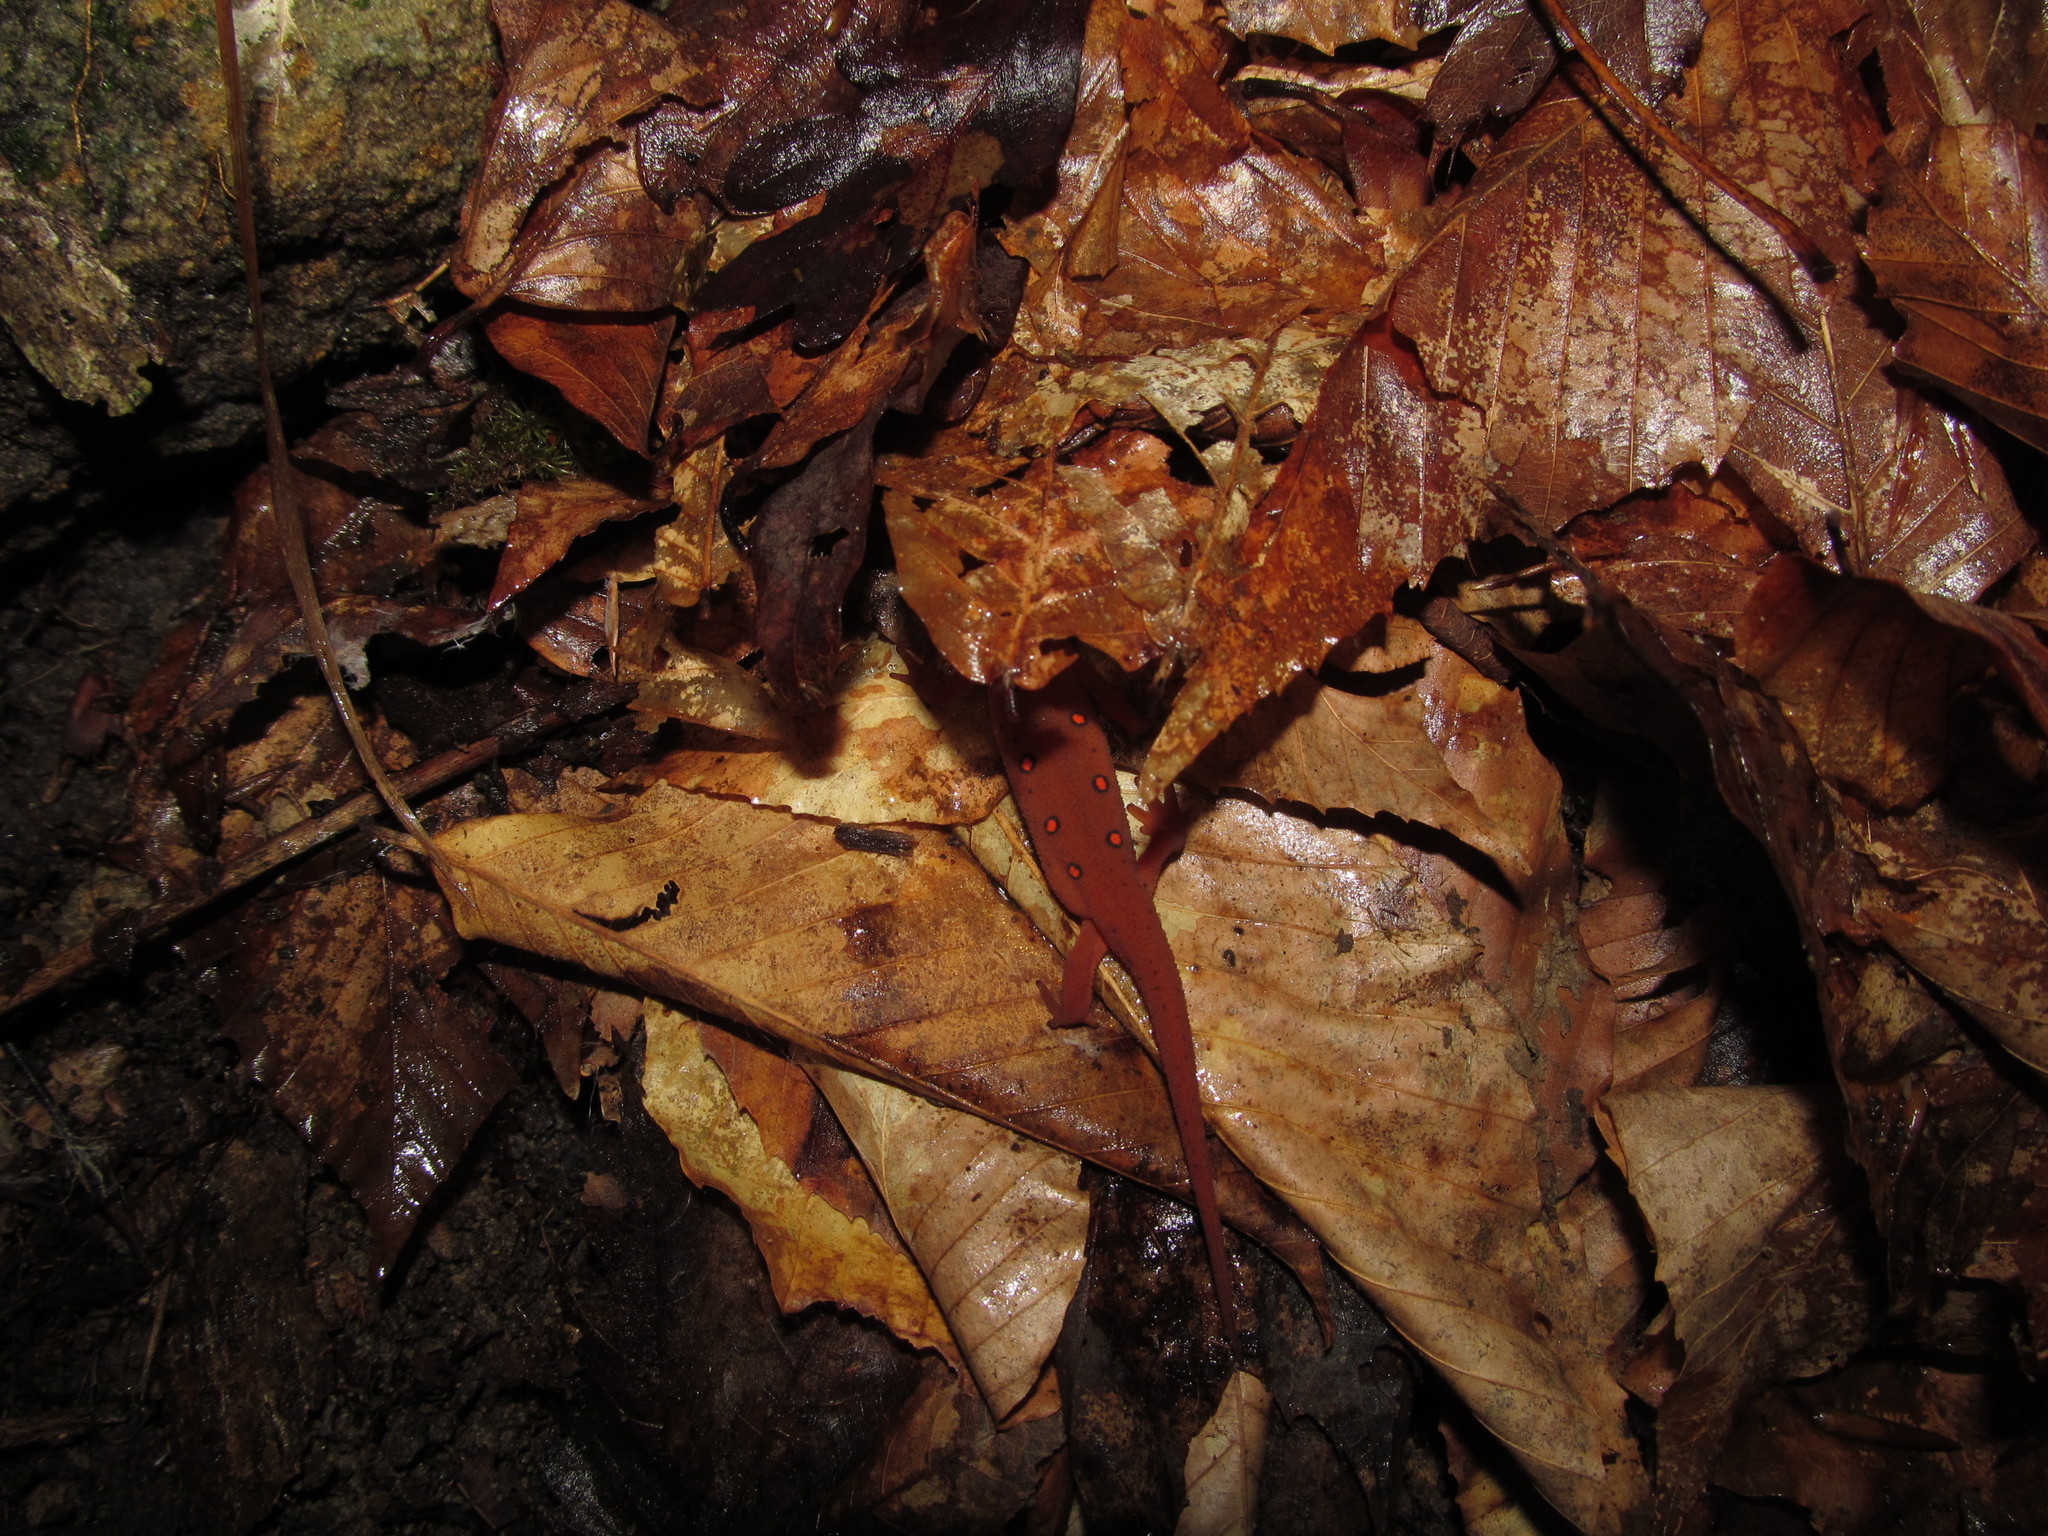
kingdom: Animalia
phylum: Chordata
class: Amphibia
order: Caudata
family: Salamandridae
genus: Notophthalmus
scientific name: Notophthalmus viridescens
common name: Eastern newt
